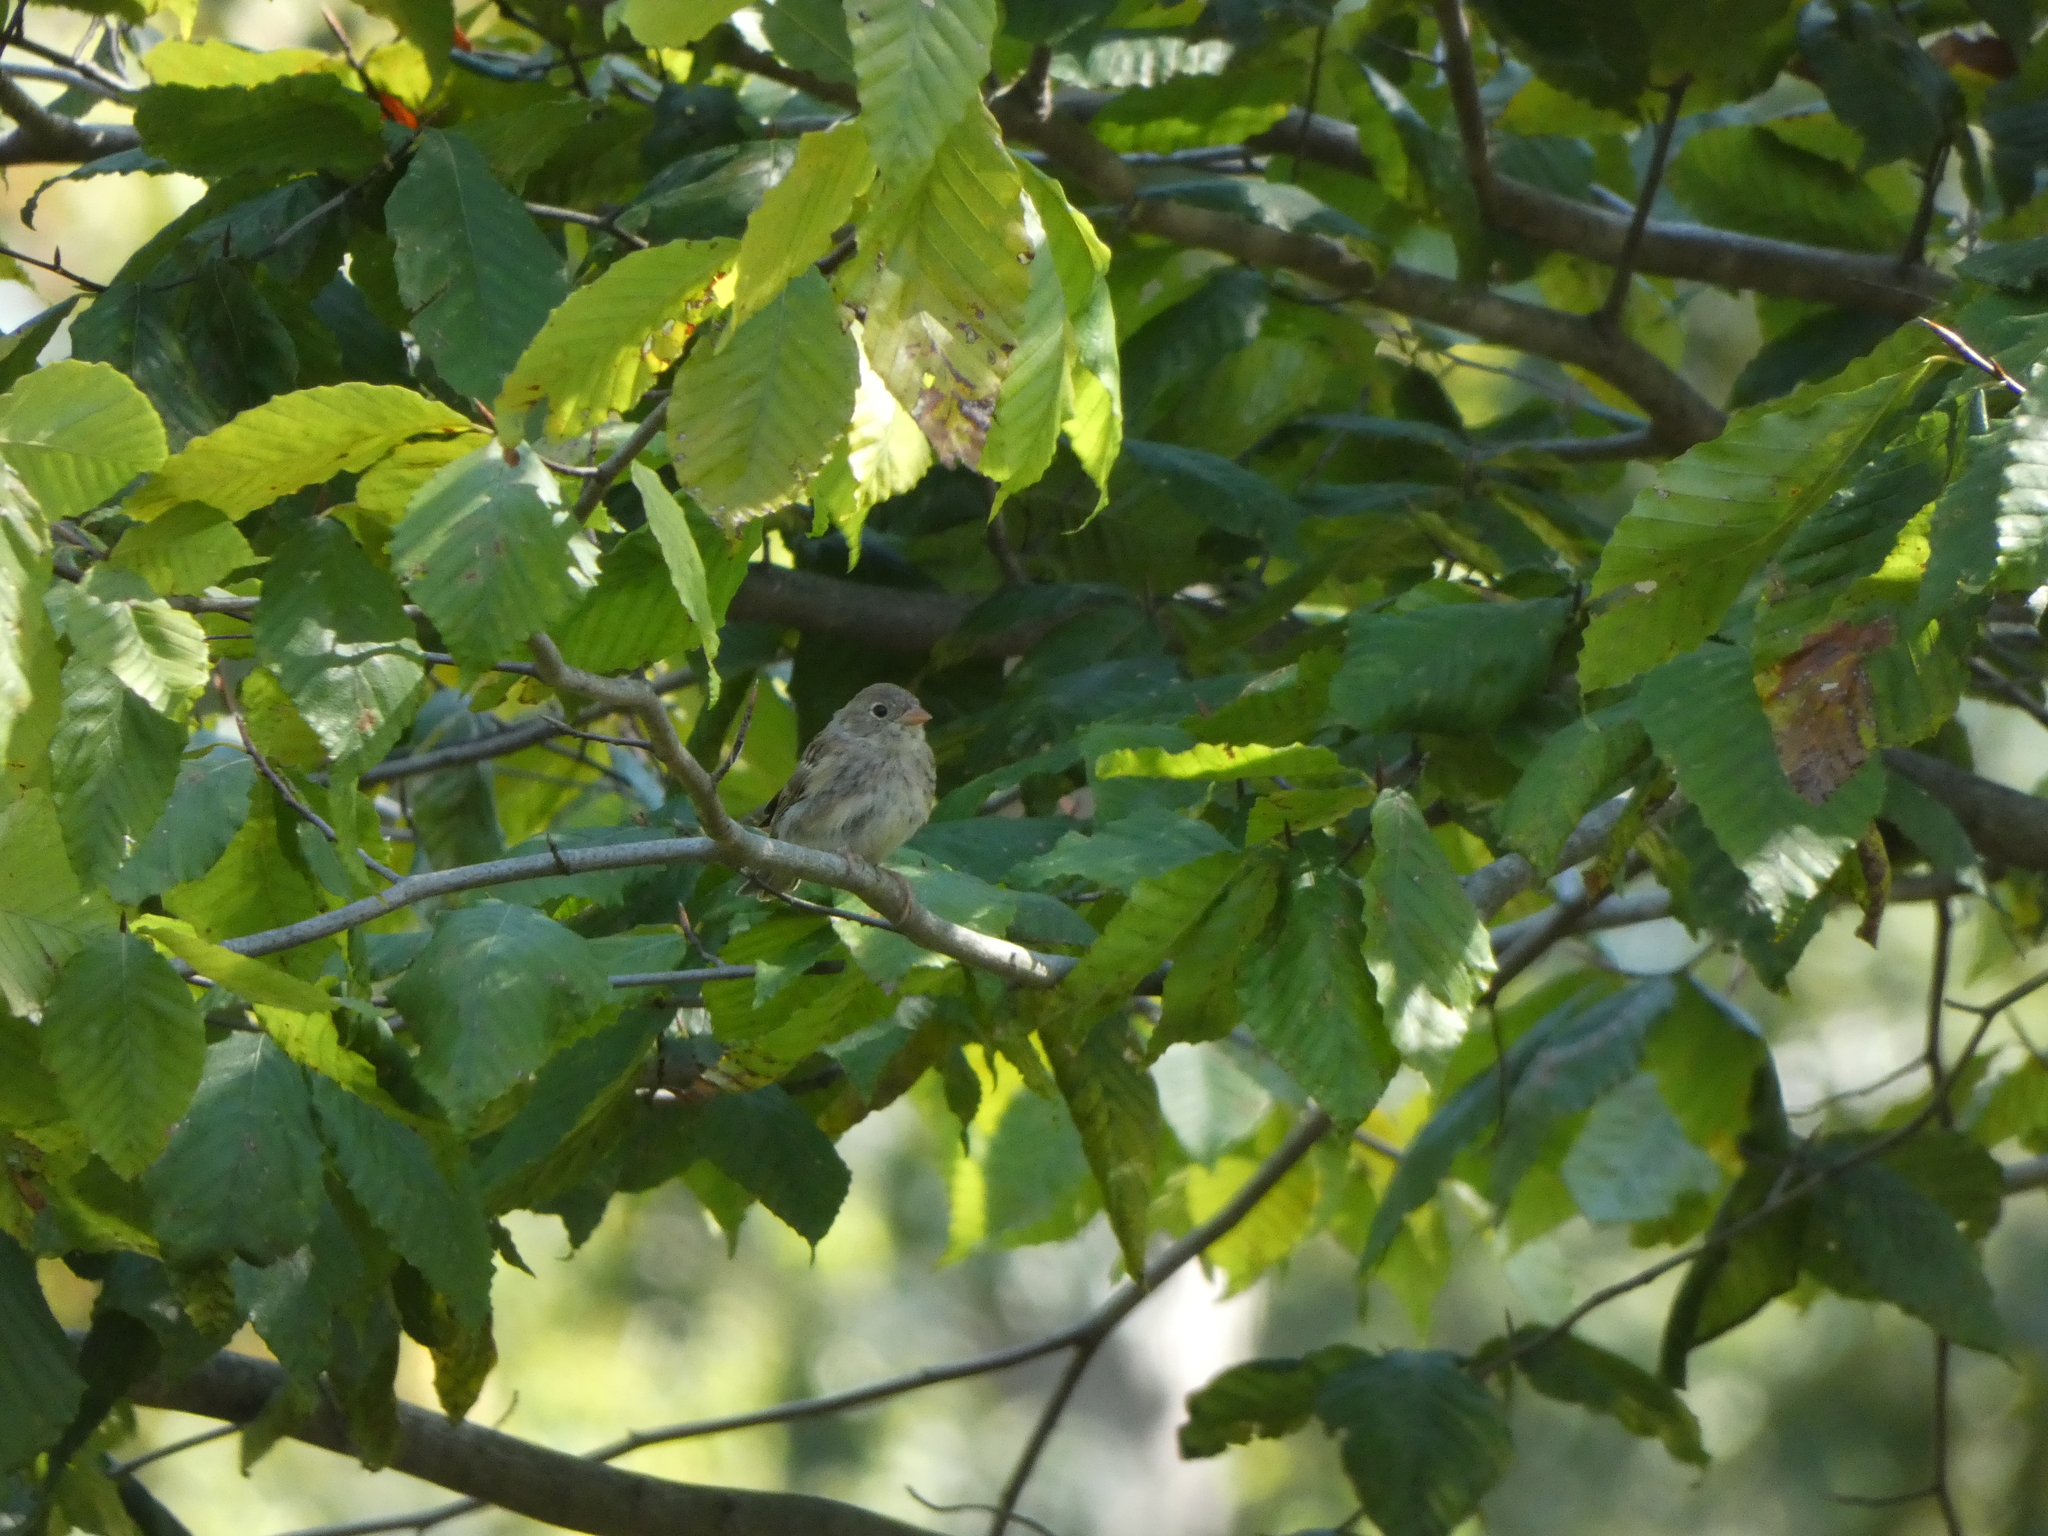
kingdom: Animalia
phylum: Chordata
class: Aves
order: Passeriformes
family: Passerellidae
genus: Spizella
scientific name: Spizella pusilla
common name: Field sparrow
